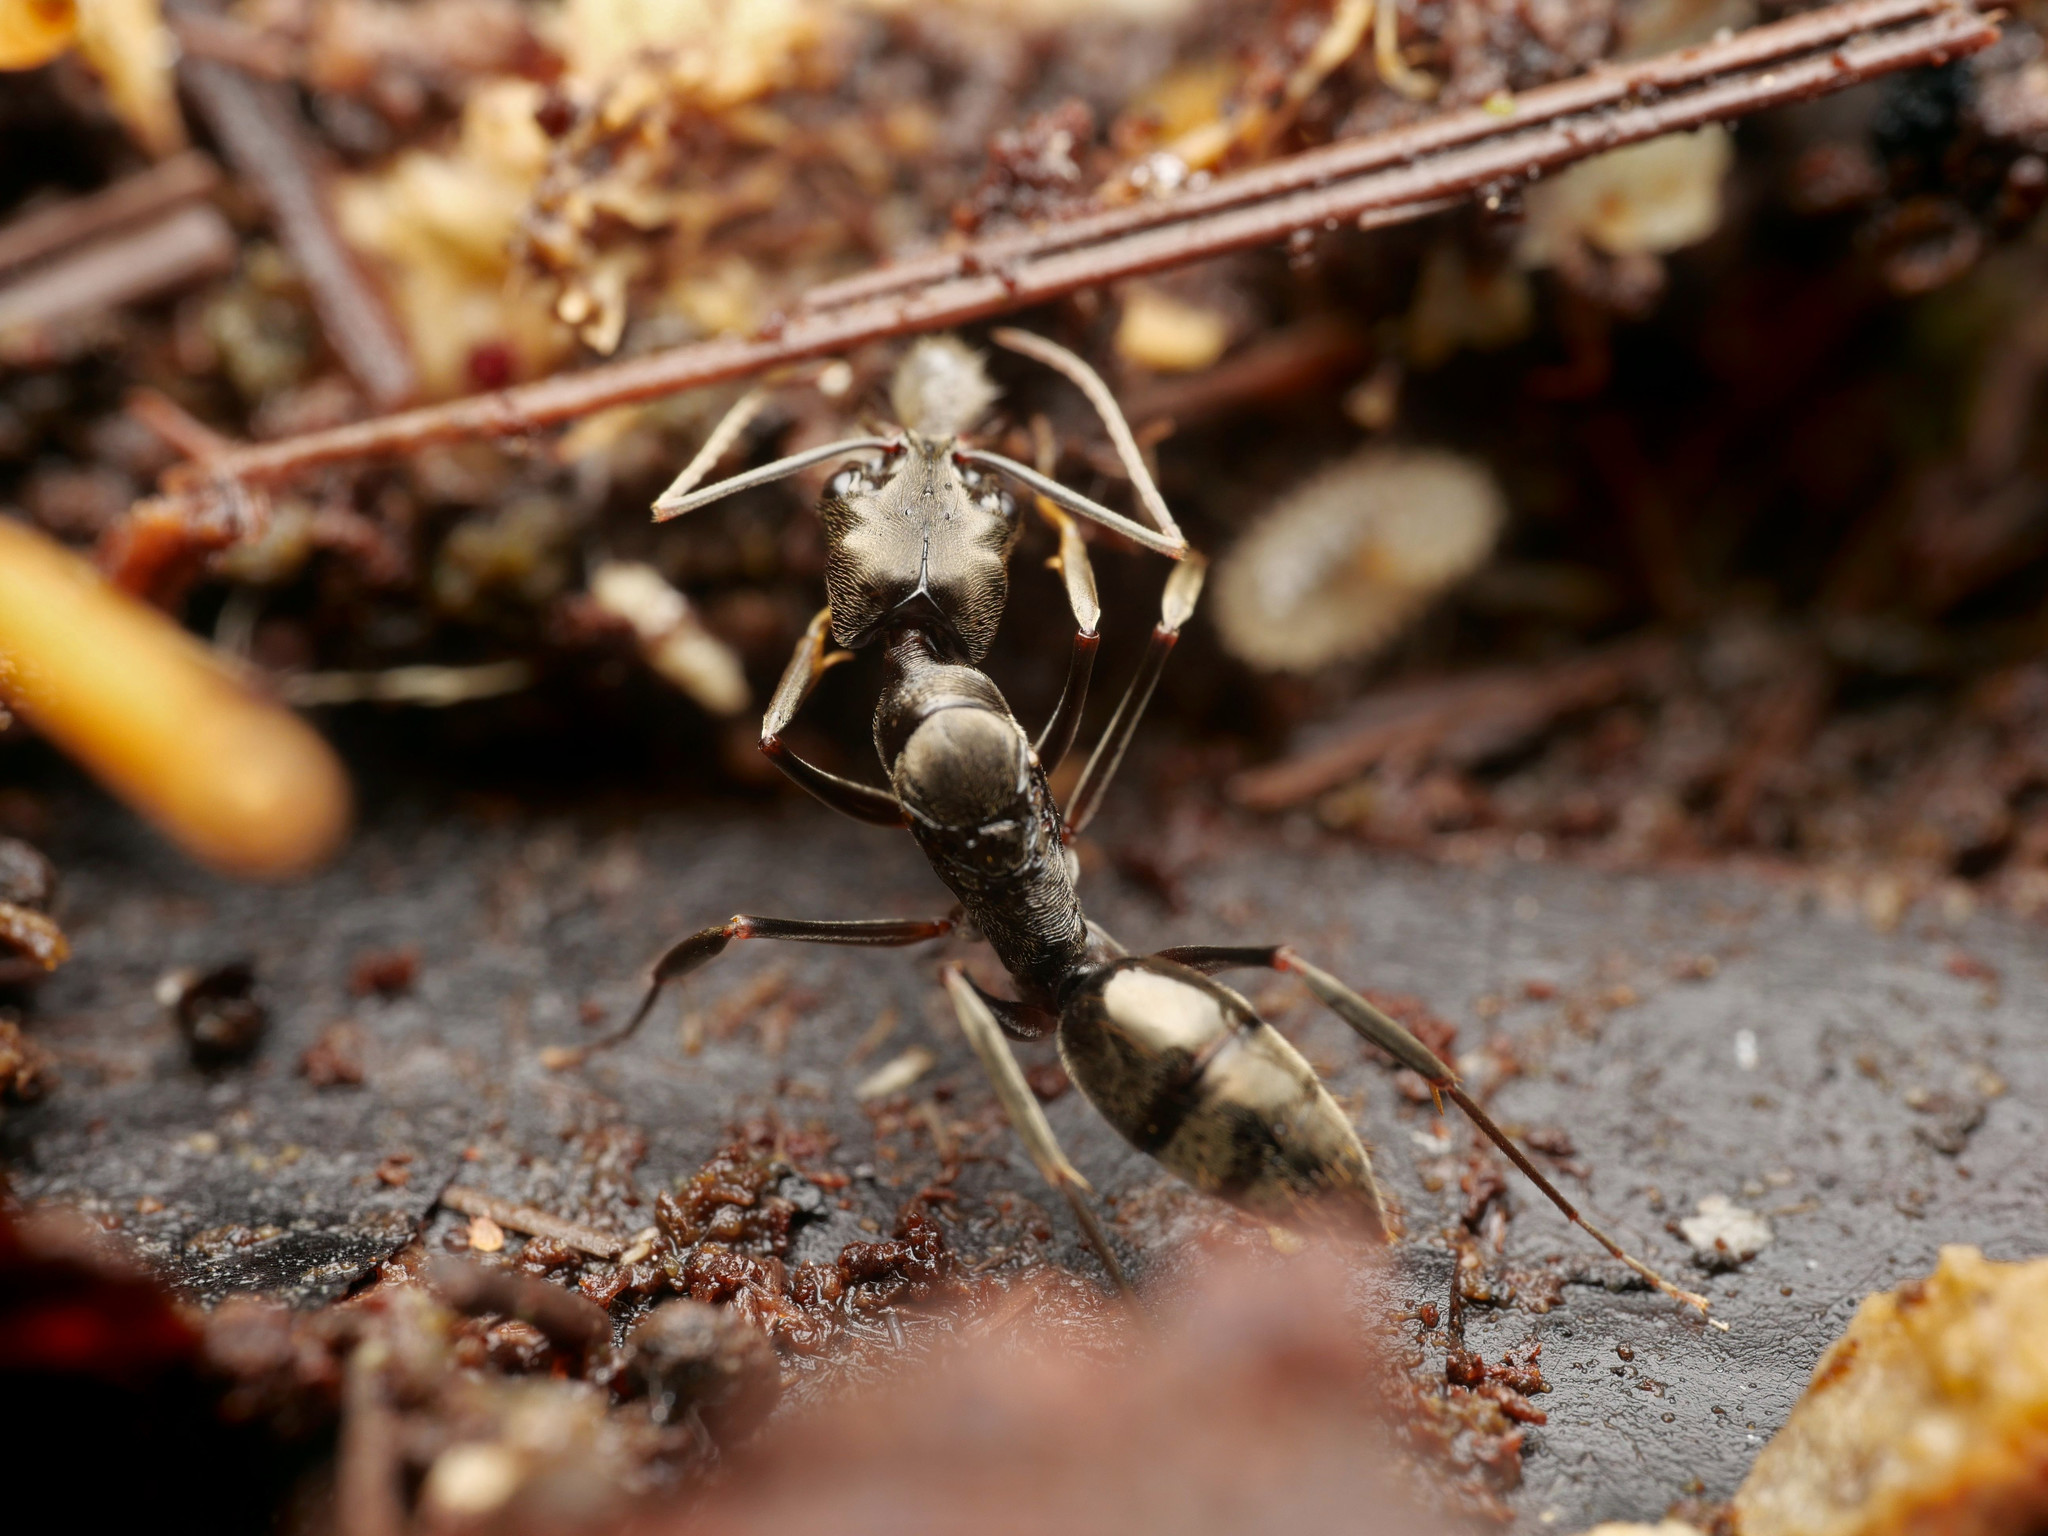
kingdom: Animalia
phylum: Arthropoda
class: Insecta
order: Hymenoptera
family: Formicidae
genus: Odontomachus
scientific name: Odontomachus bauri
